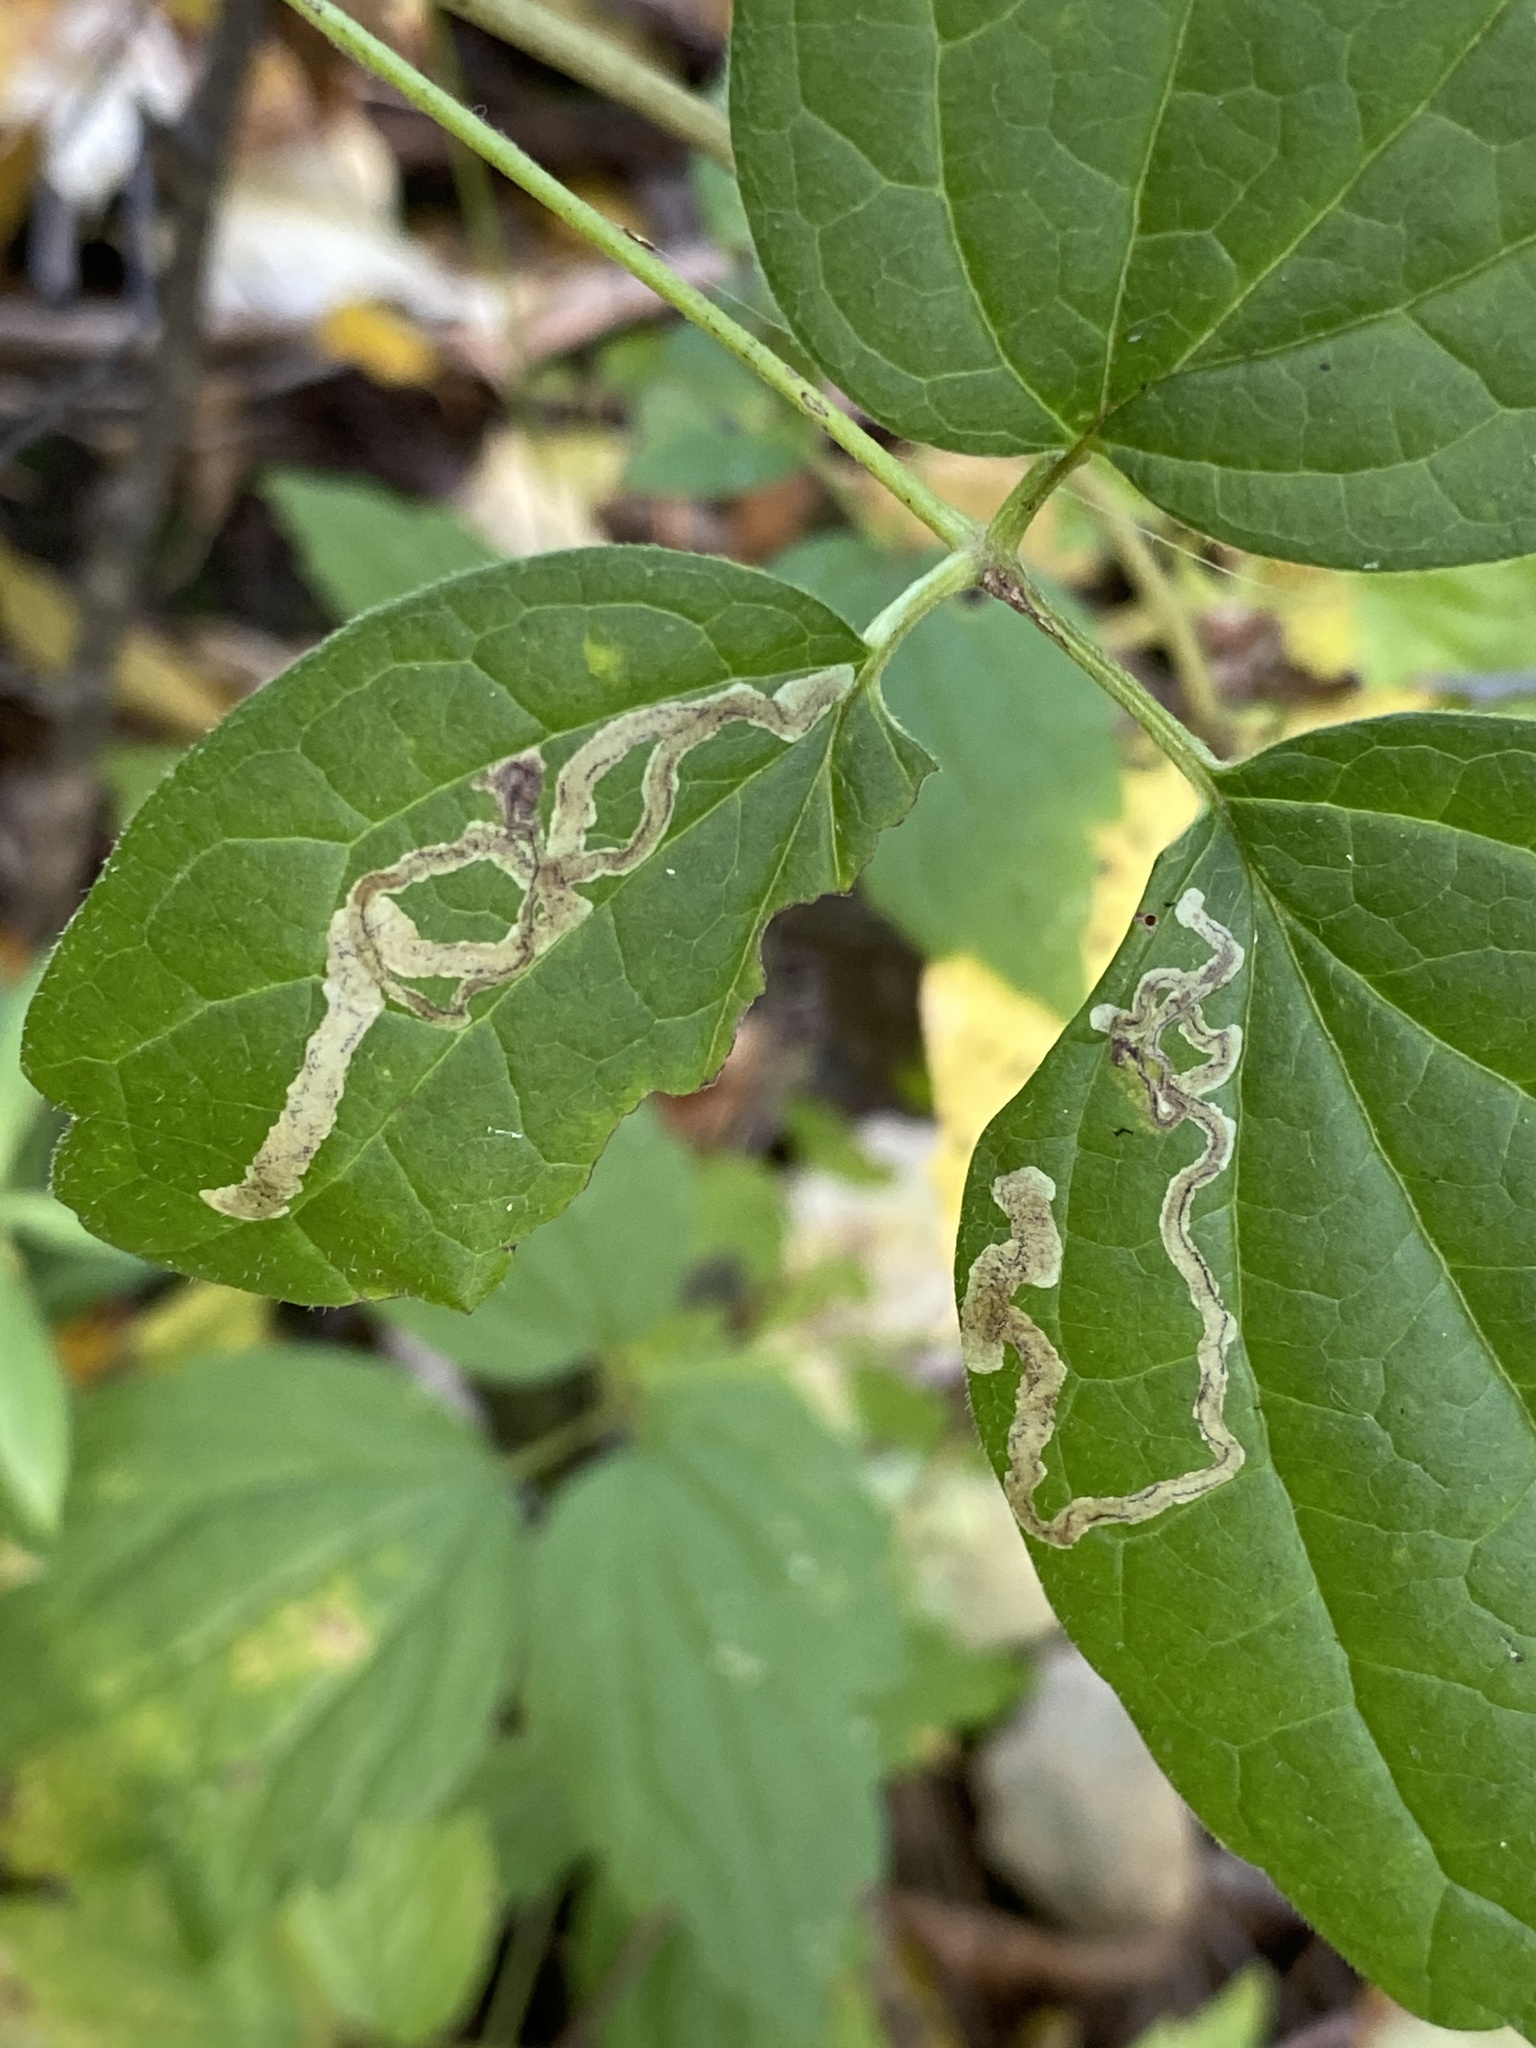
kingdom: Animalia
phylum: Arthropoda
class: Insecta
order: Diptera
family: Agromyzidae
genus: Phytomyza
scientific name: Phytomyza loewii
